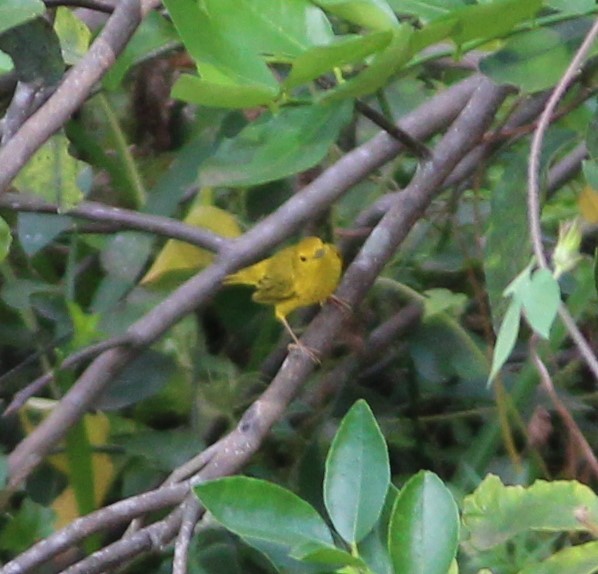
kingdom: Animalia
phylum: Chordata
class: Aves
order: Passeriformes
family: Parulidae
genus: Setophaga
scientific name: Setophaga petechia
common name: Yellow warbler
